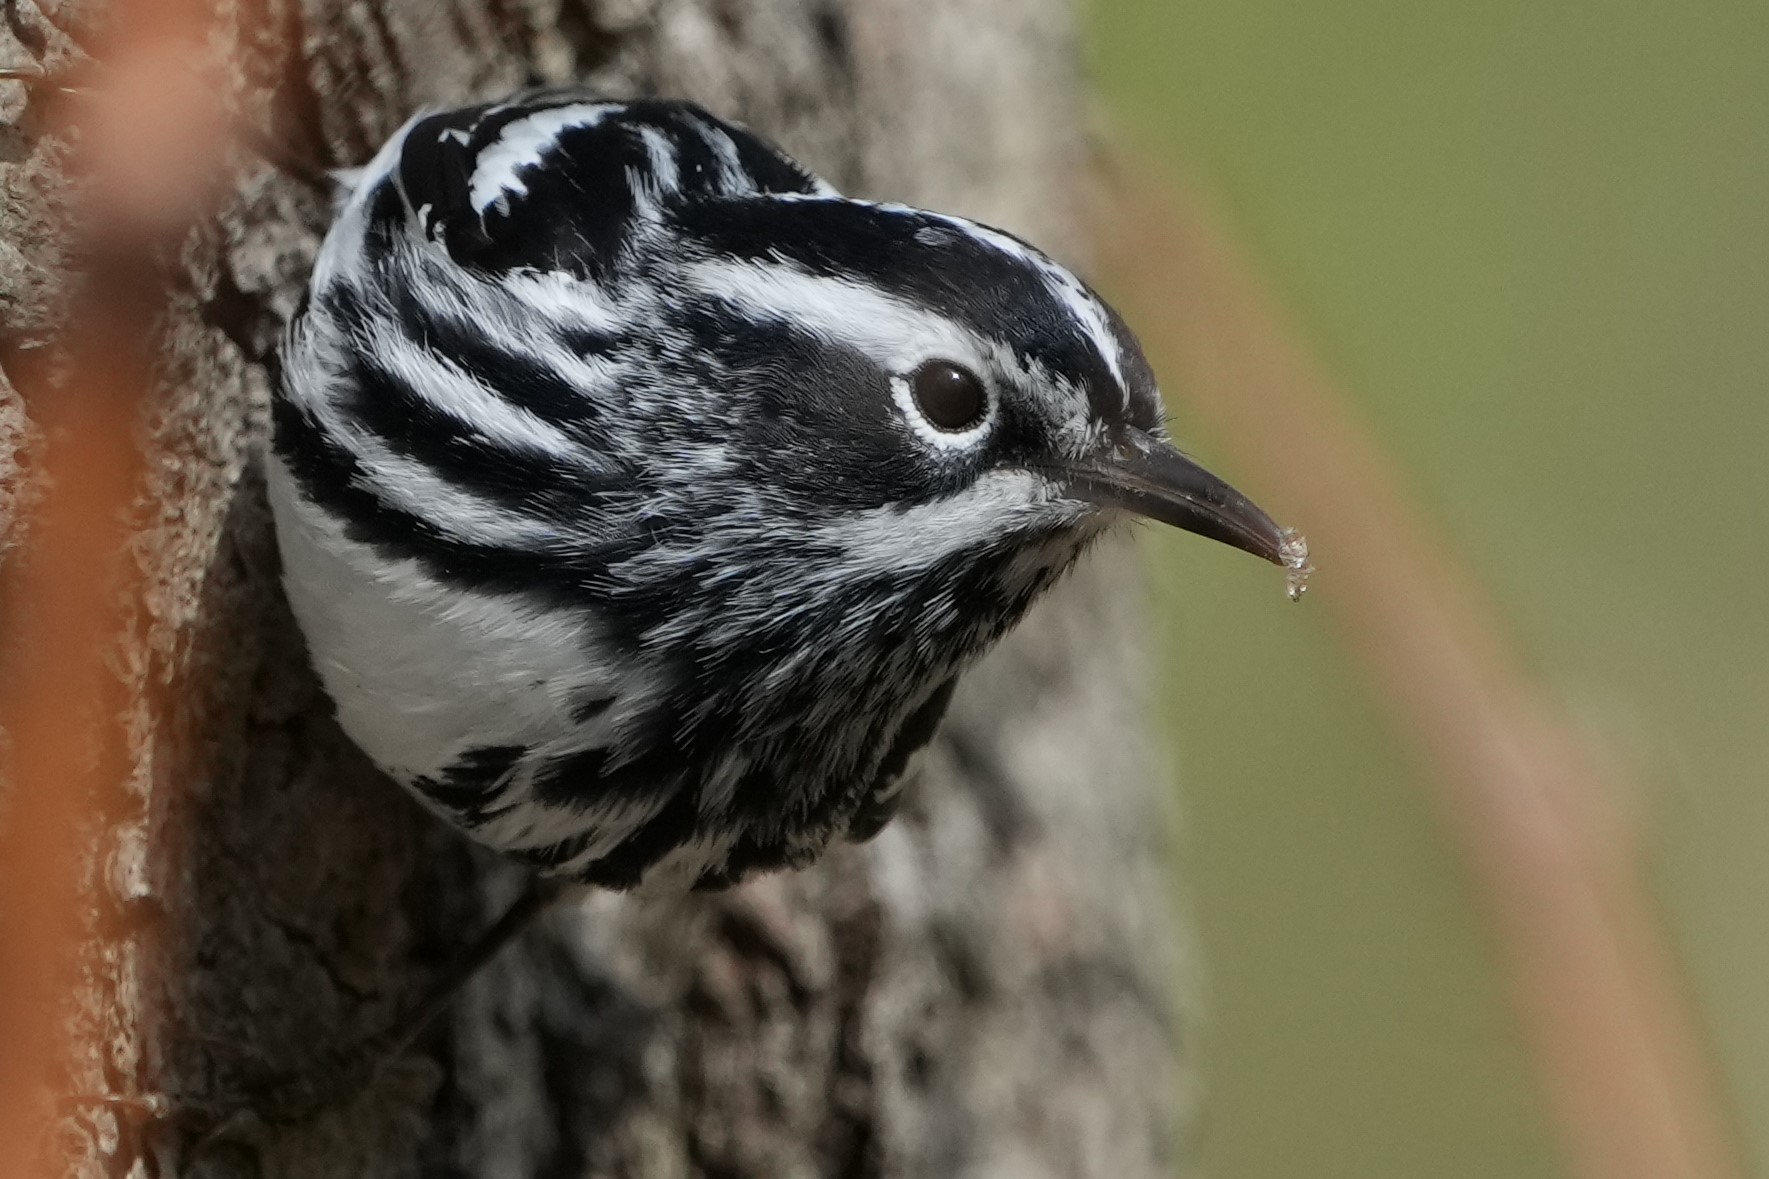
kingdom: Animalia
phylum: Chordata
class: Aves
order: Passeriformes
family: Parulidae
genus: Mniotilta
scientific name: Mniotilta varia
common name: Black-and-white warbler
